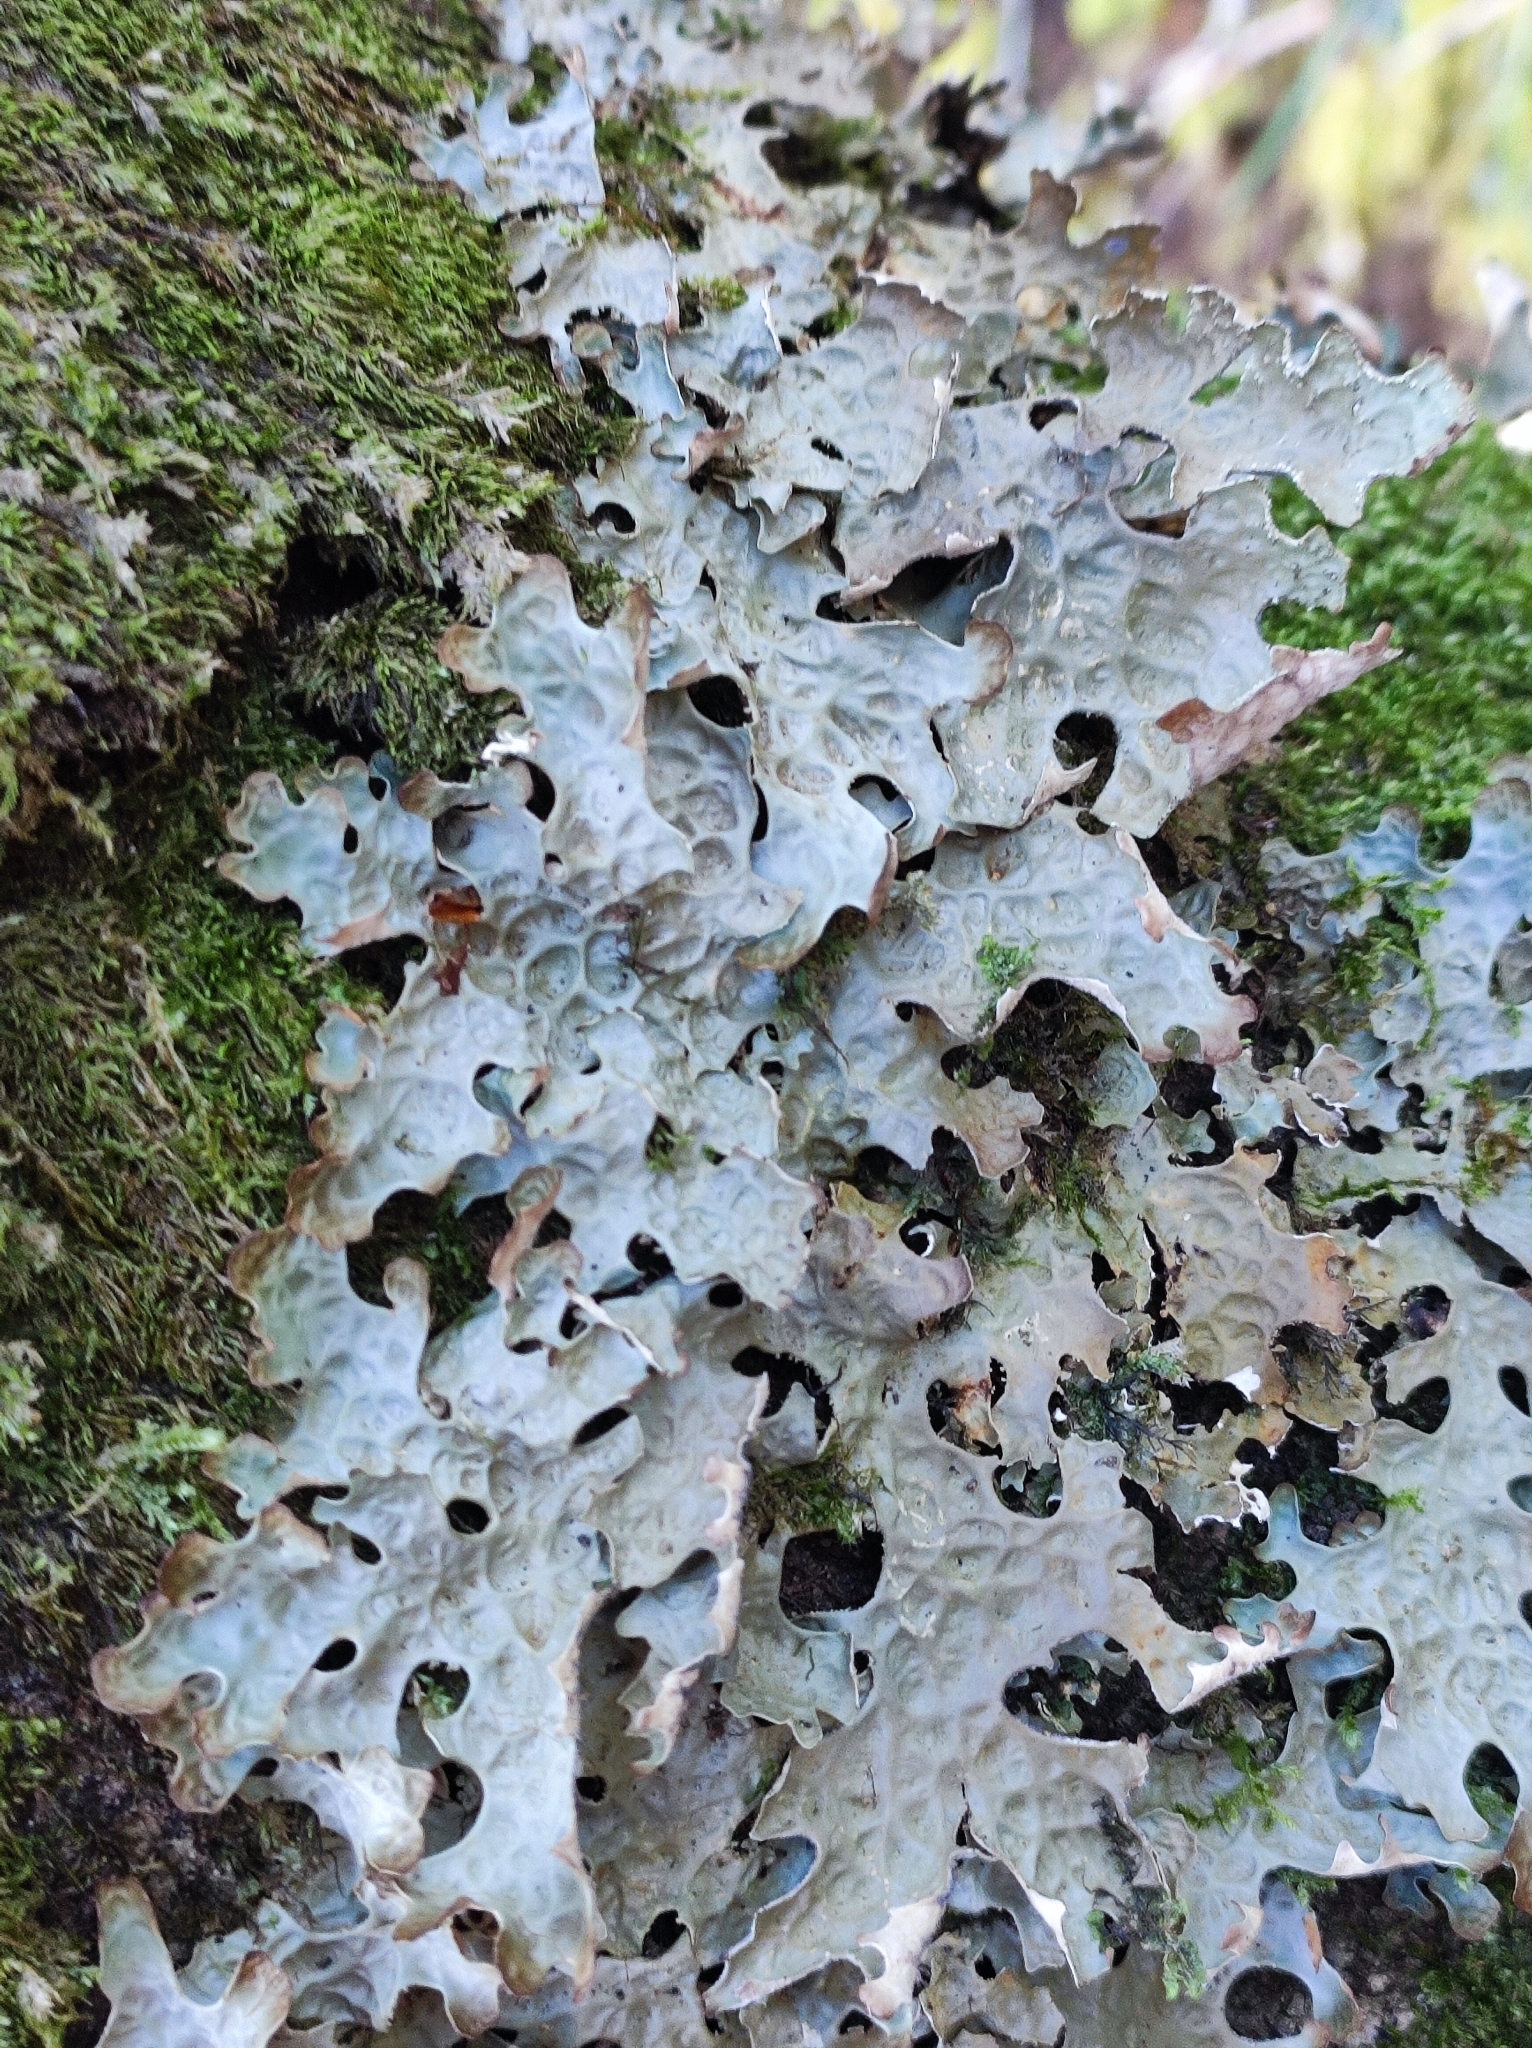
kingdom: Fungi
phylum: Ascomycota
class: Lecanoromycetes
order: Peltigerales
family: Lobariaceae
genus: Lobaria
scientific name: Lobaria pulmonaria
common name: Lungwort
